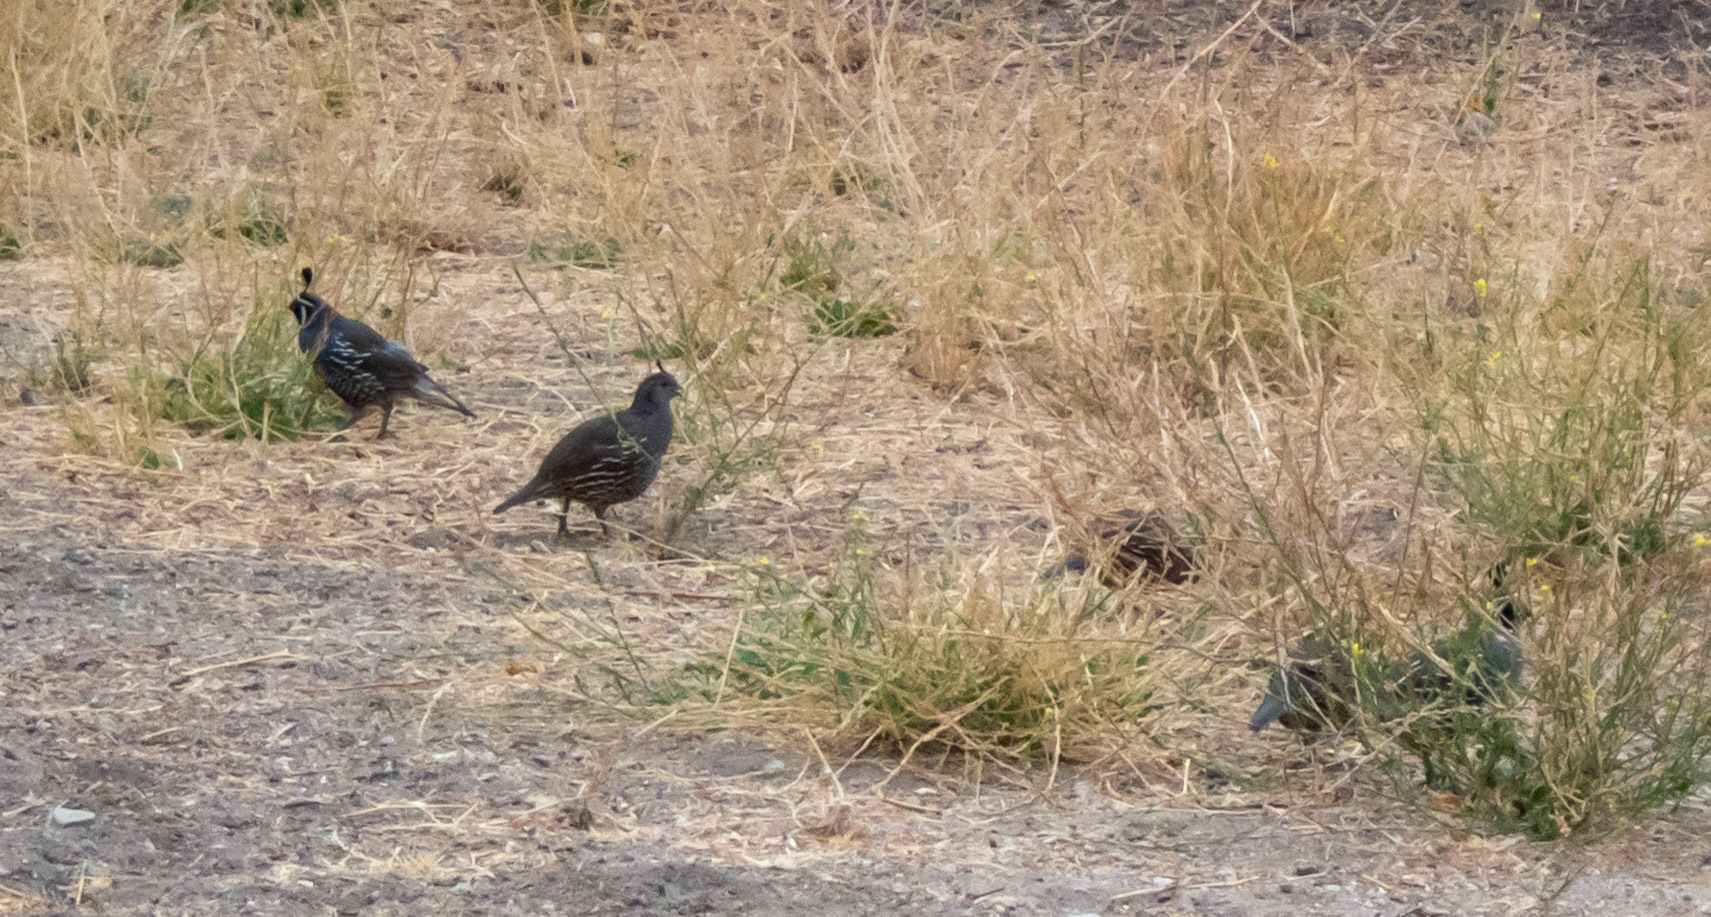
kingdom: Animalia
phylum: Chordata
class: Aves
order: Galliformes
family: Odontophoridae
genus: Callipepla
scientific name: Callipepla californica
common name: California quail
